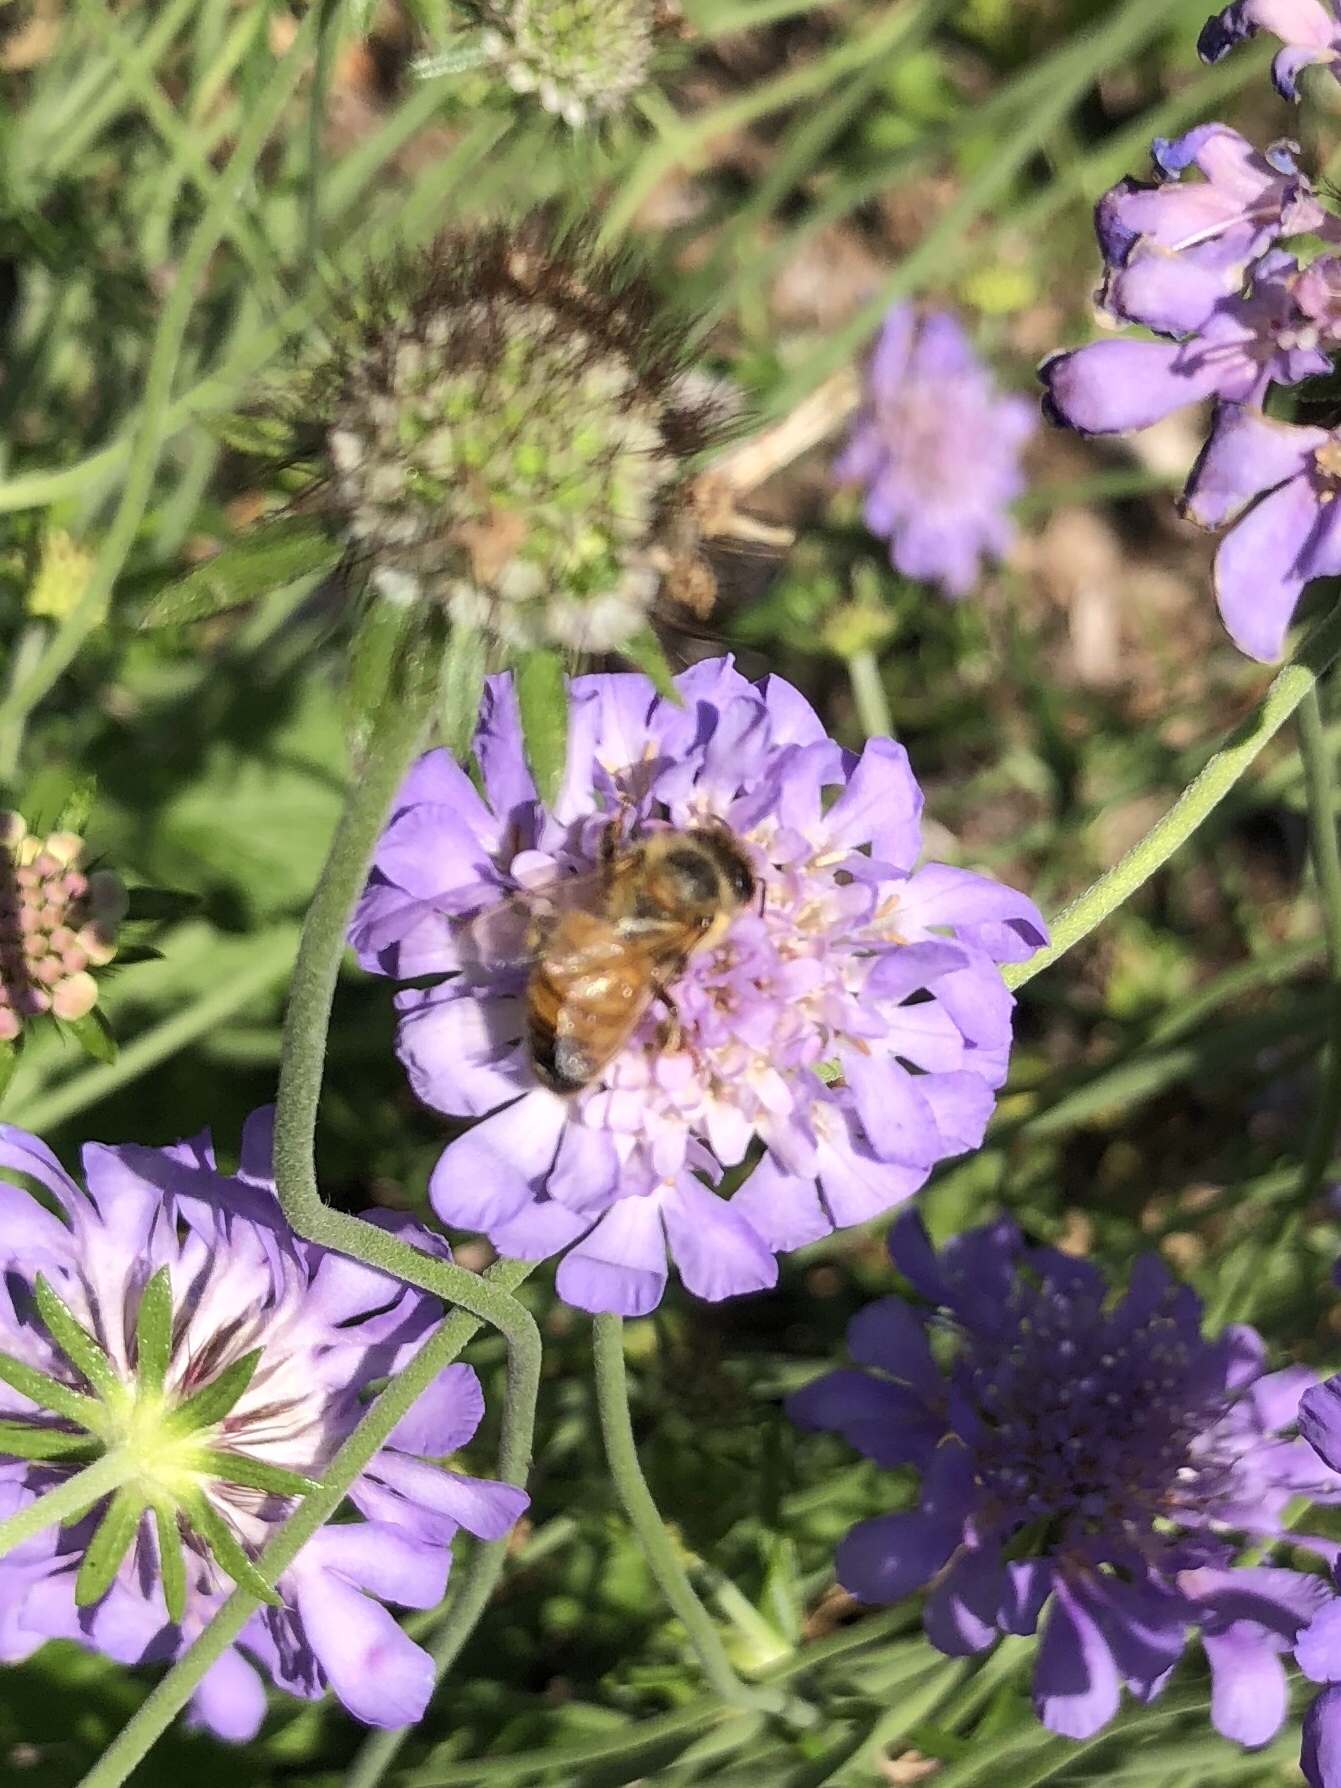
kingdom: Animalia
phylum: Arthropoda
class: Insecta
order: Hymenoptera
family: Apidae
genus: Apis
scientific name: Apis mellifera
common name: Honey bee
